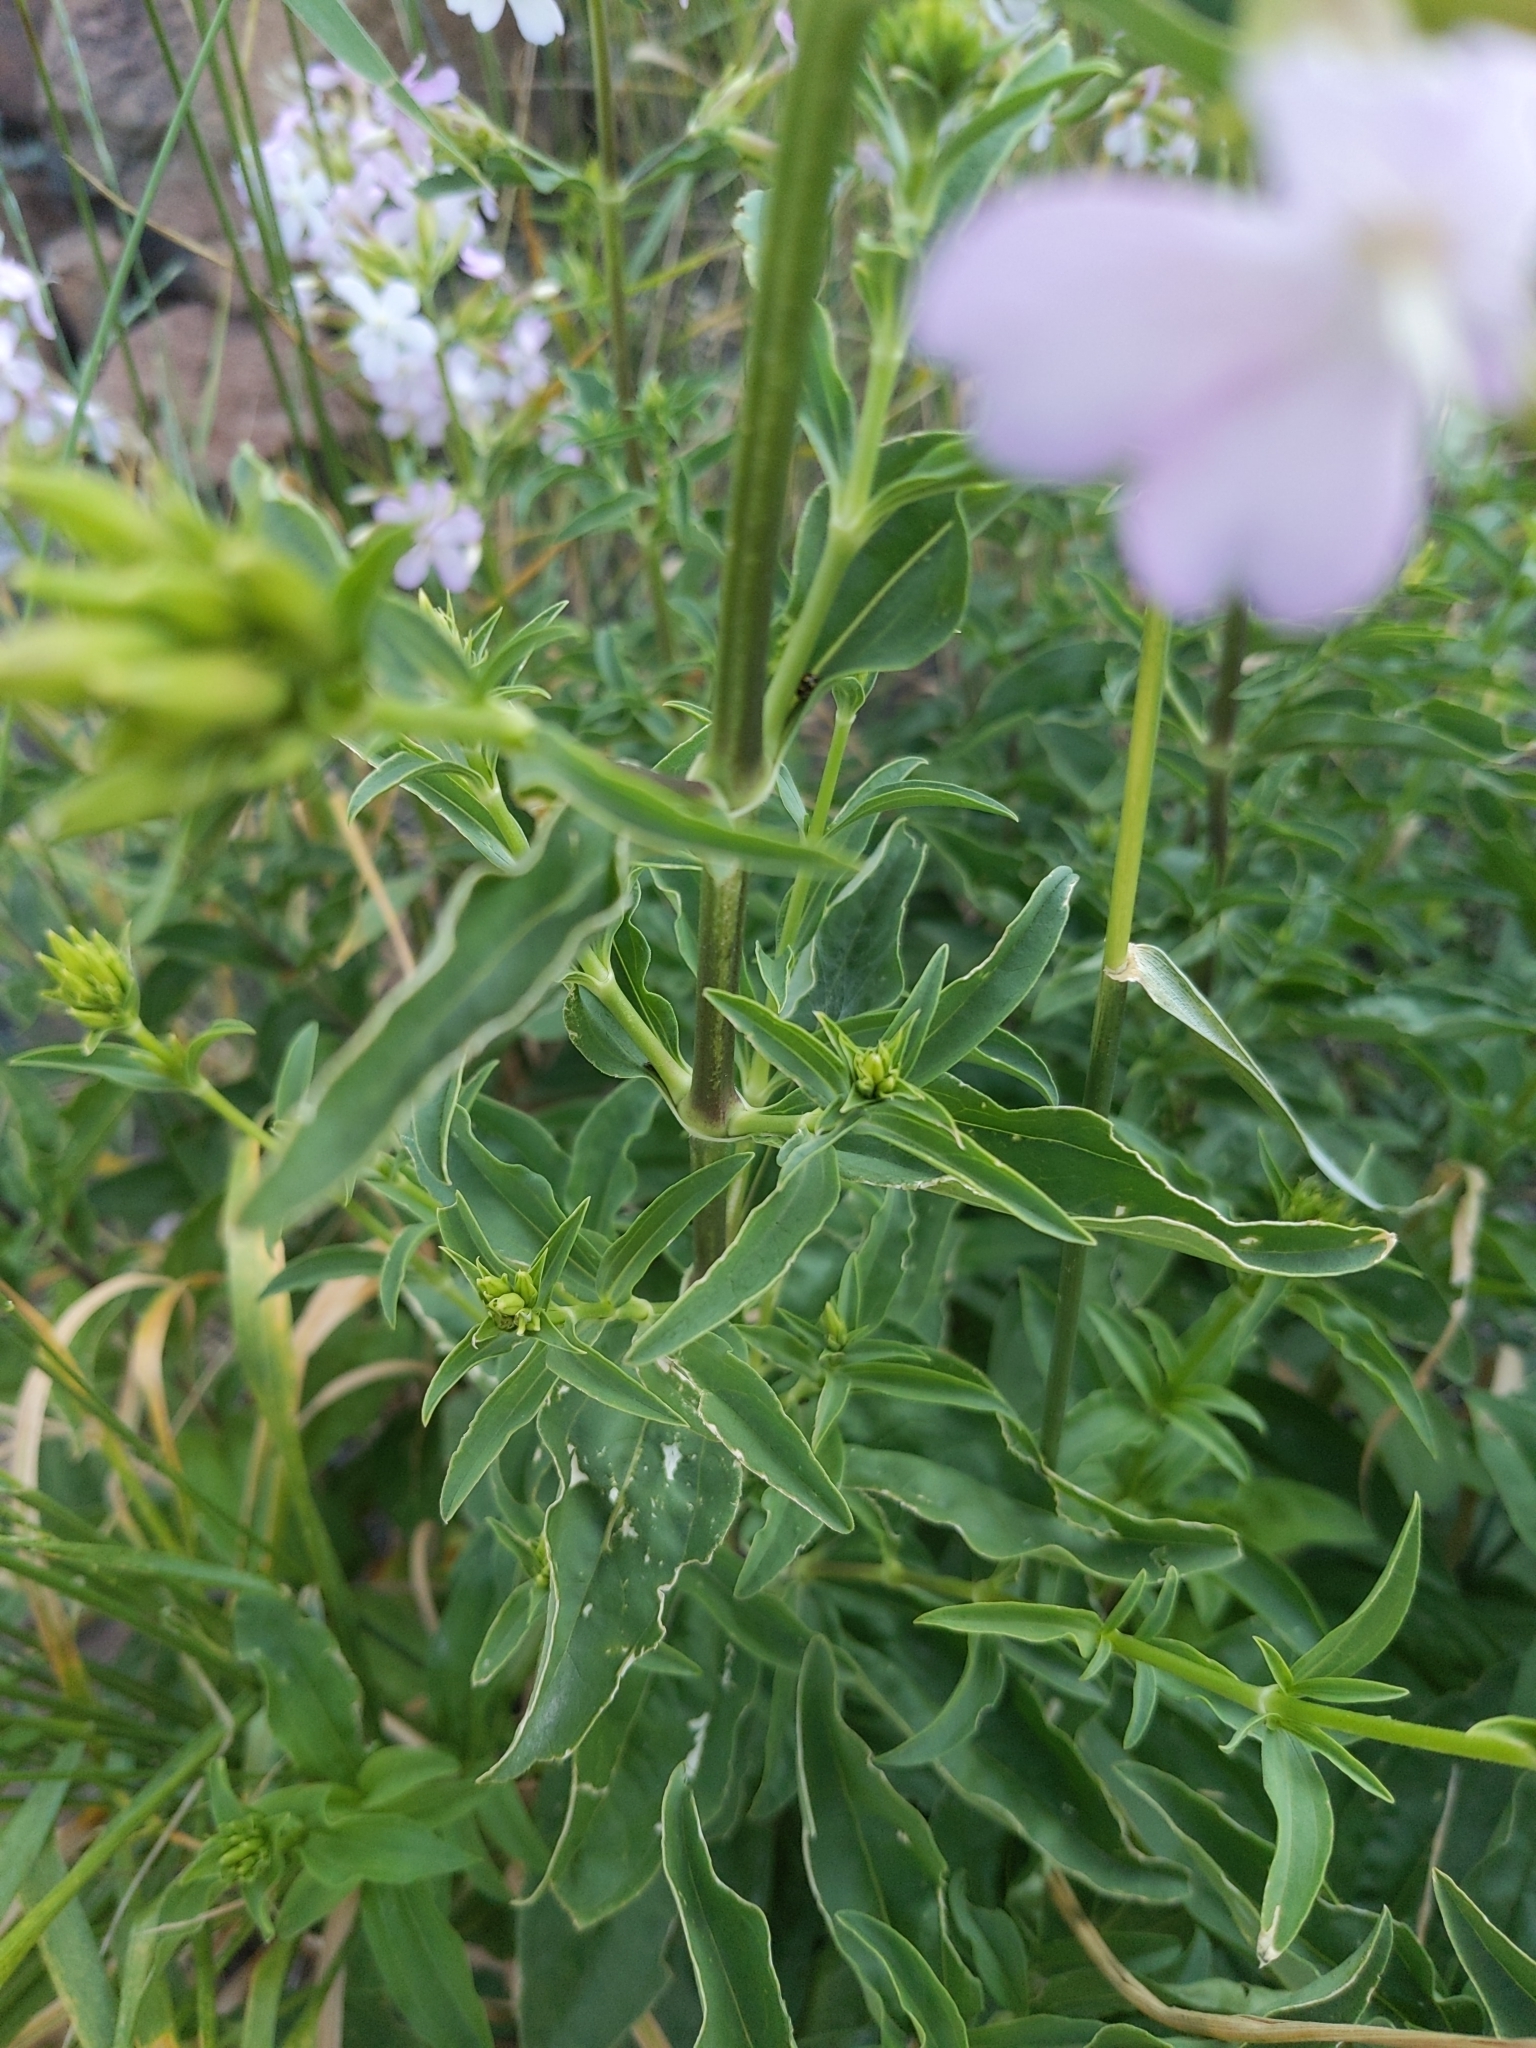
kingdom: Plantae
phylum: Tracheophyta
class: Magnoliopsida
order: Caryophyllales
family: Caryophyllaceae
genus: Saponaria
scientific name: Saponaria officinalis
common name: Soapwort
